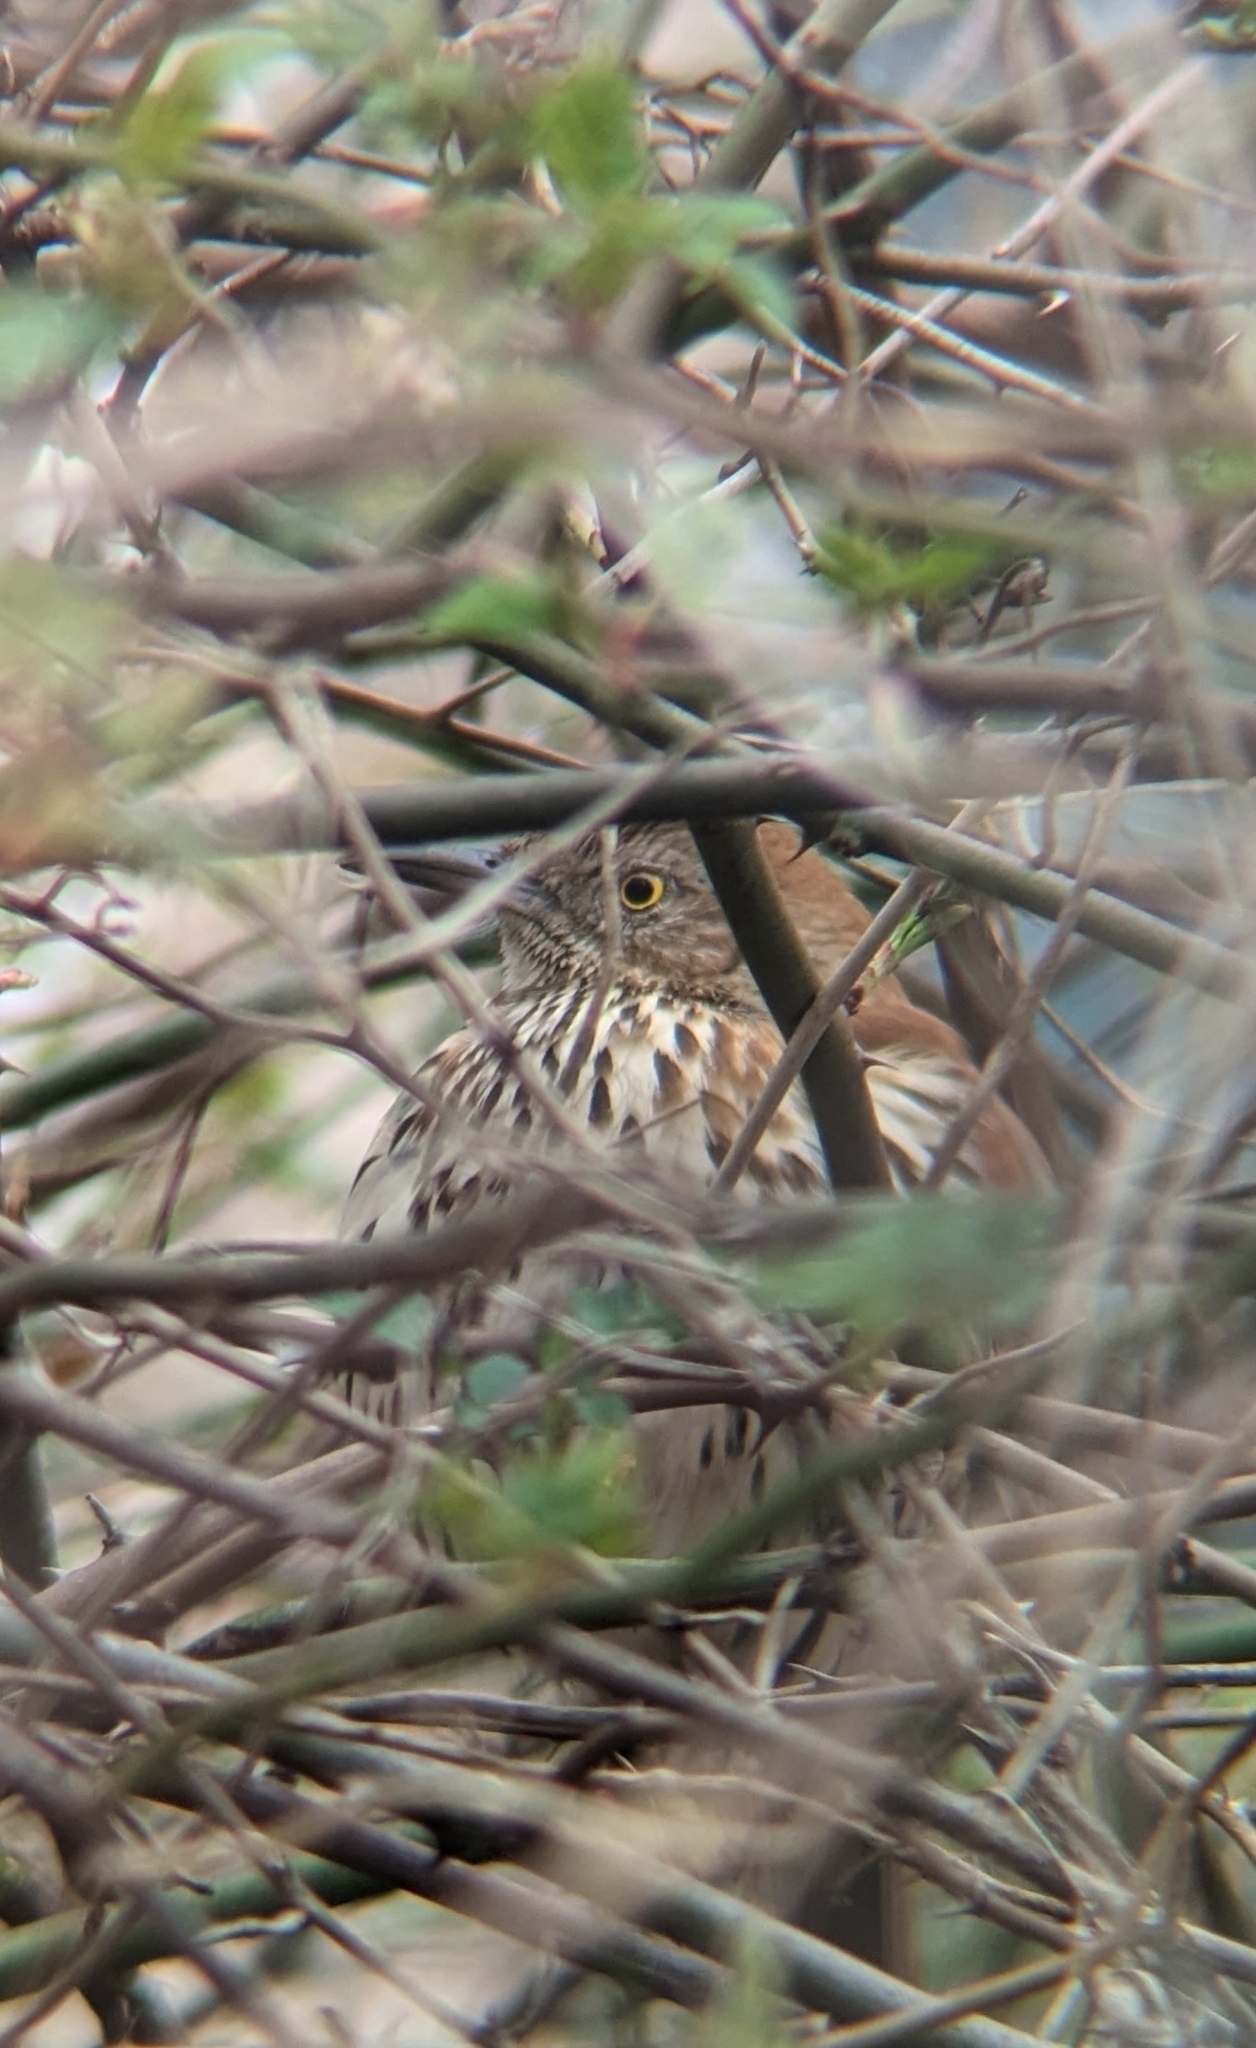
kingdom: Animalia
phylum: Chordata
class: Aves
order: Passeriformes
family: Mimidae
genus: Toxostoma
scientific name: Toxostoma rufum
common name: Brown thrasher
